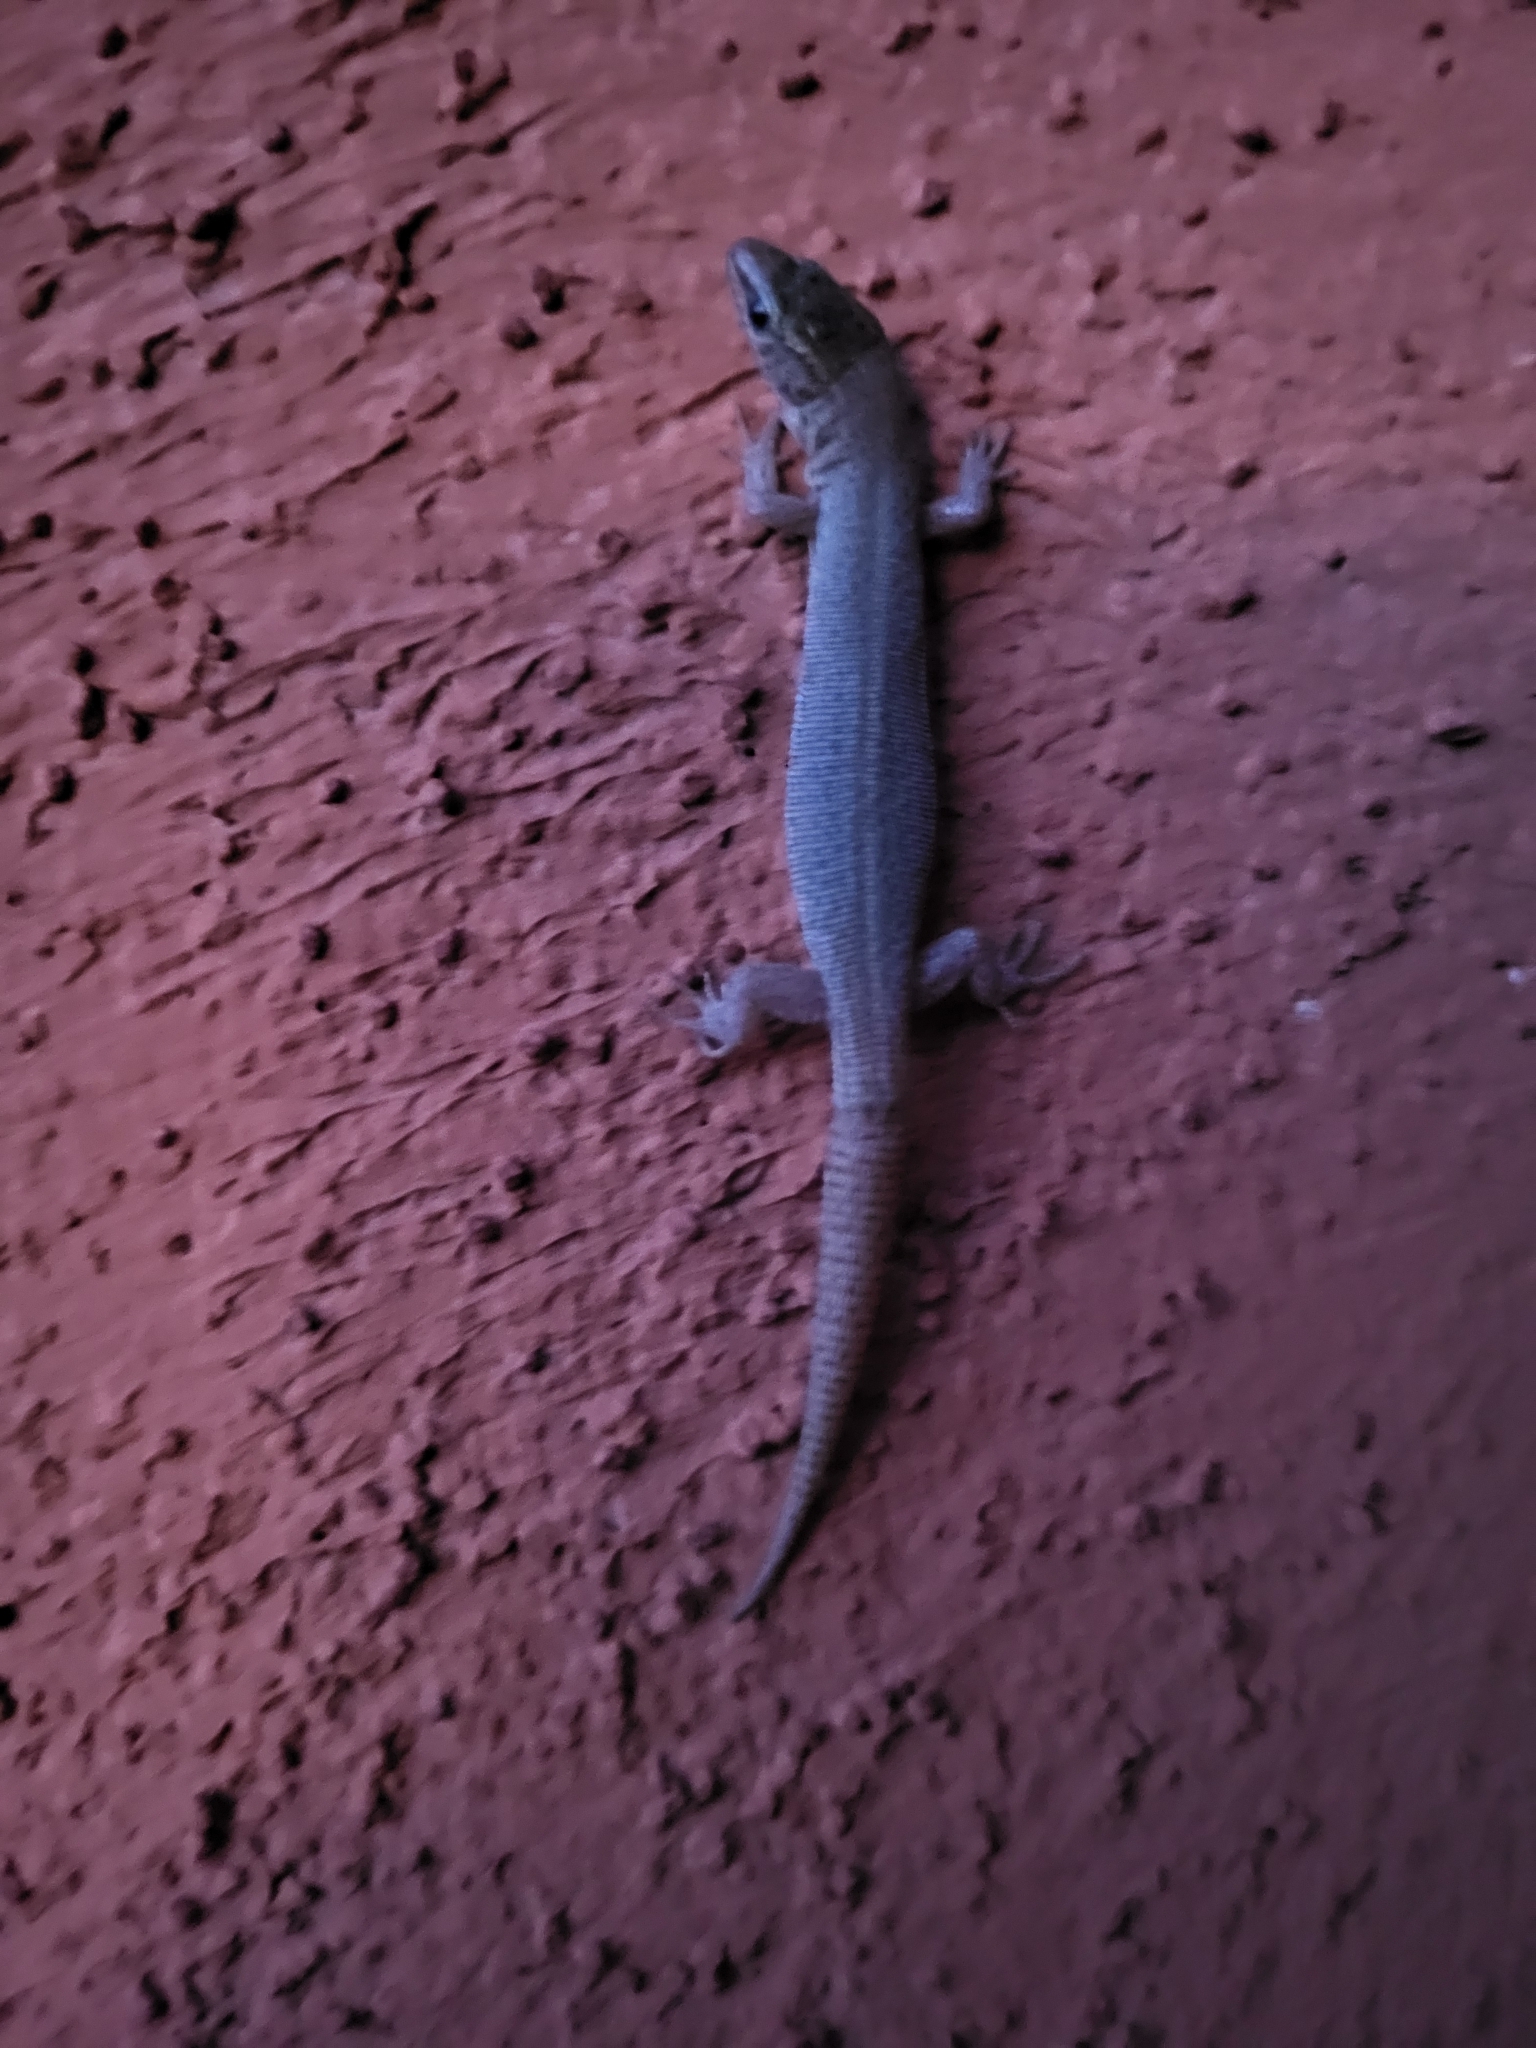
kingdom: Animalia
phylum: Chordata
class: Squamata
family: Xantusiidae
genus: Xantusia
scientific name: Xantusia vigilis
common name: Desert night lizard
